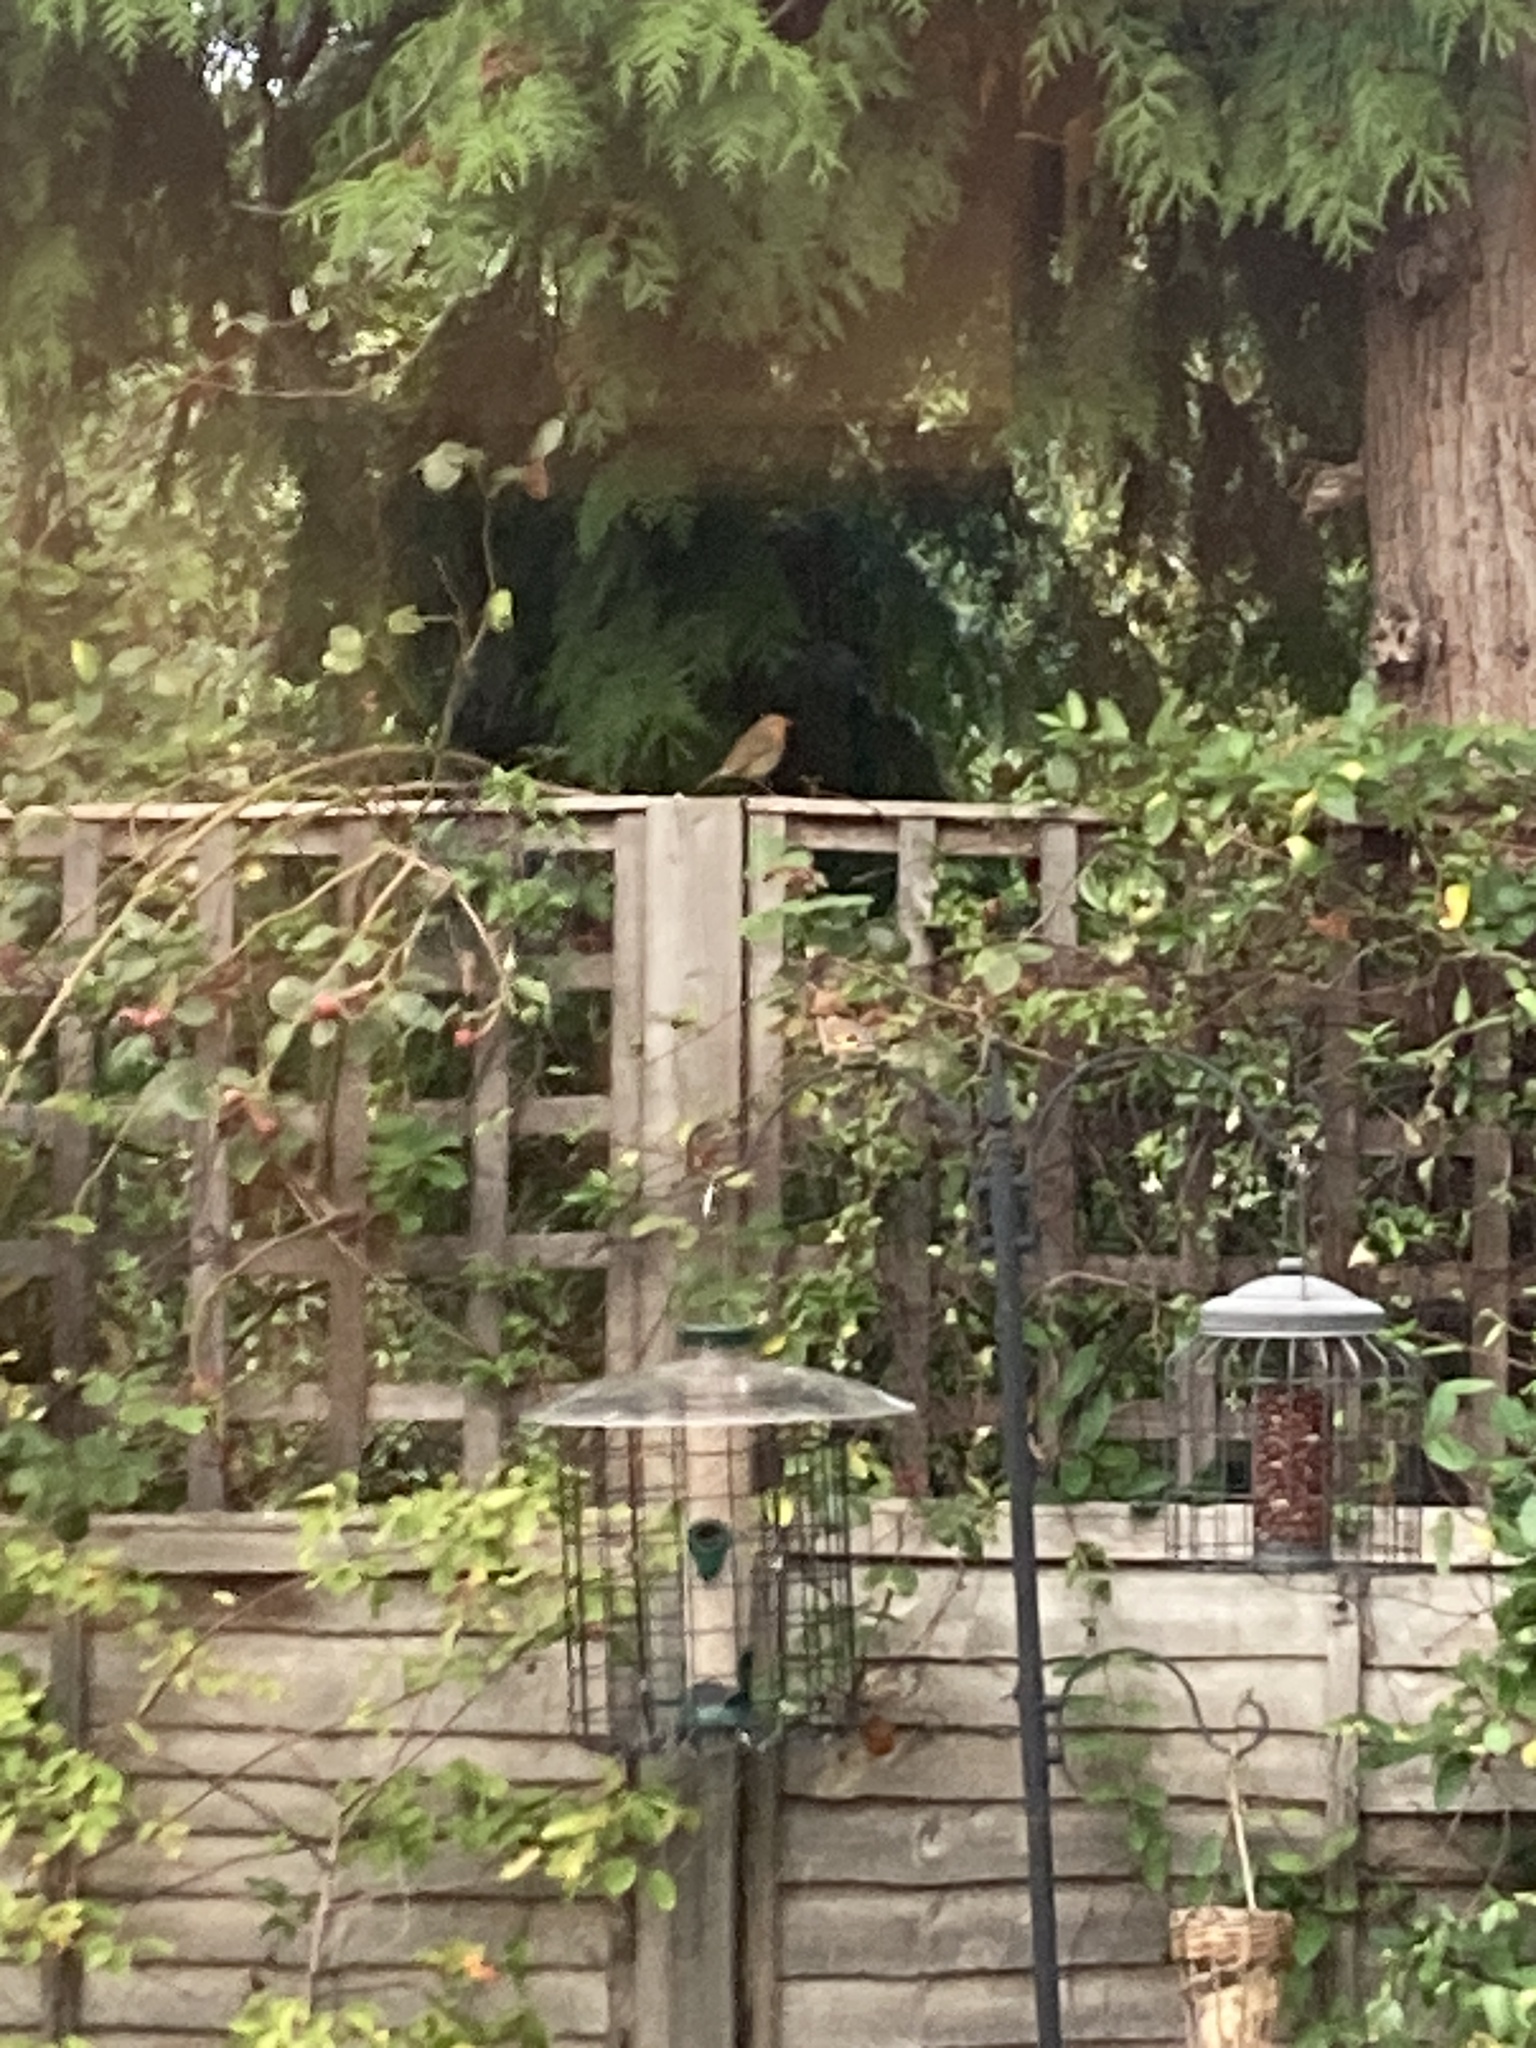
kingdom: Animalia
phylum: Chordata
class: Aves
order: Passeriformes
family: Muscicapidae
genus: Erithacus
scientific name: Erithacus rubecula
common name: European robin
